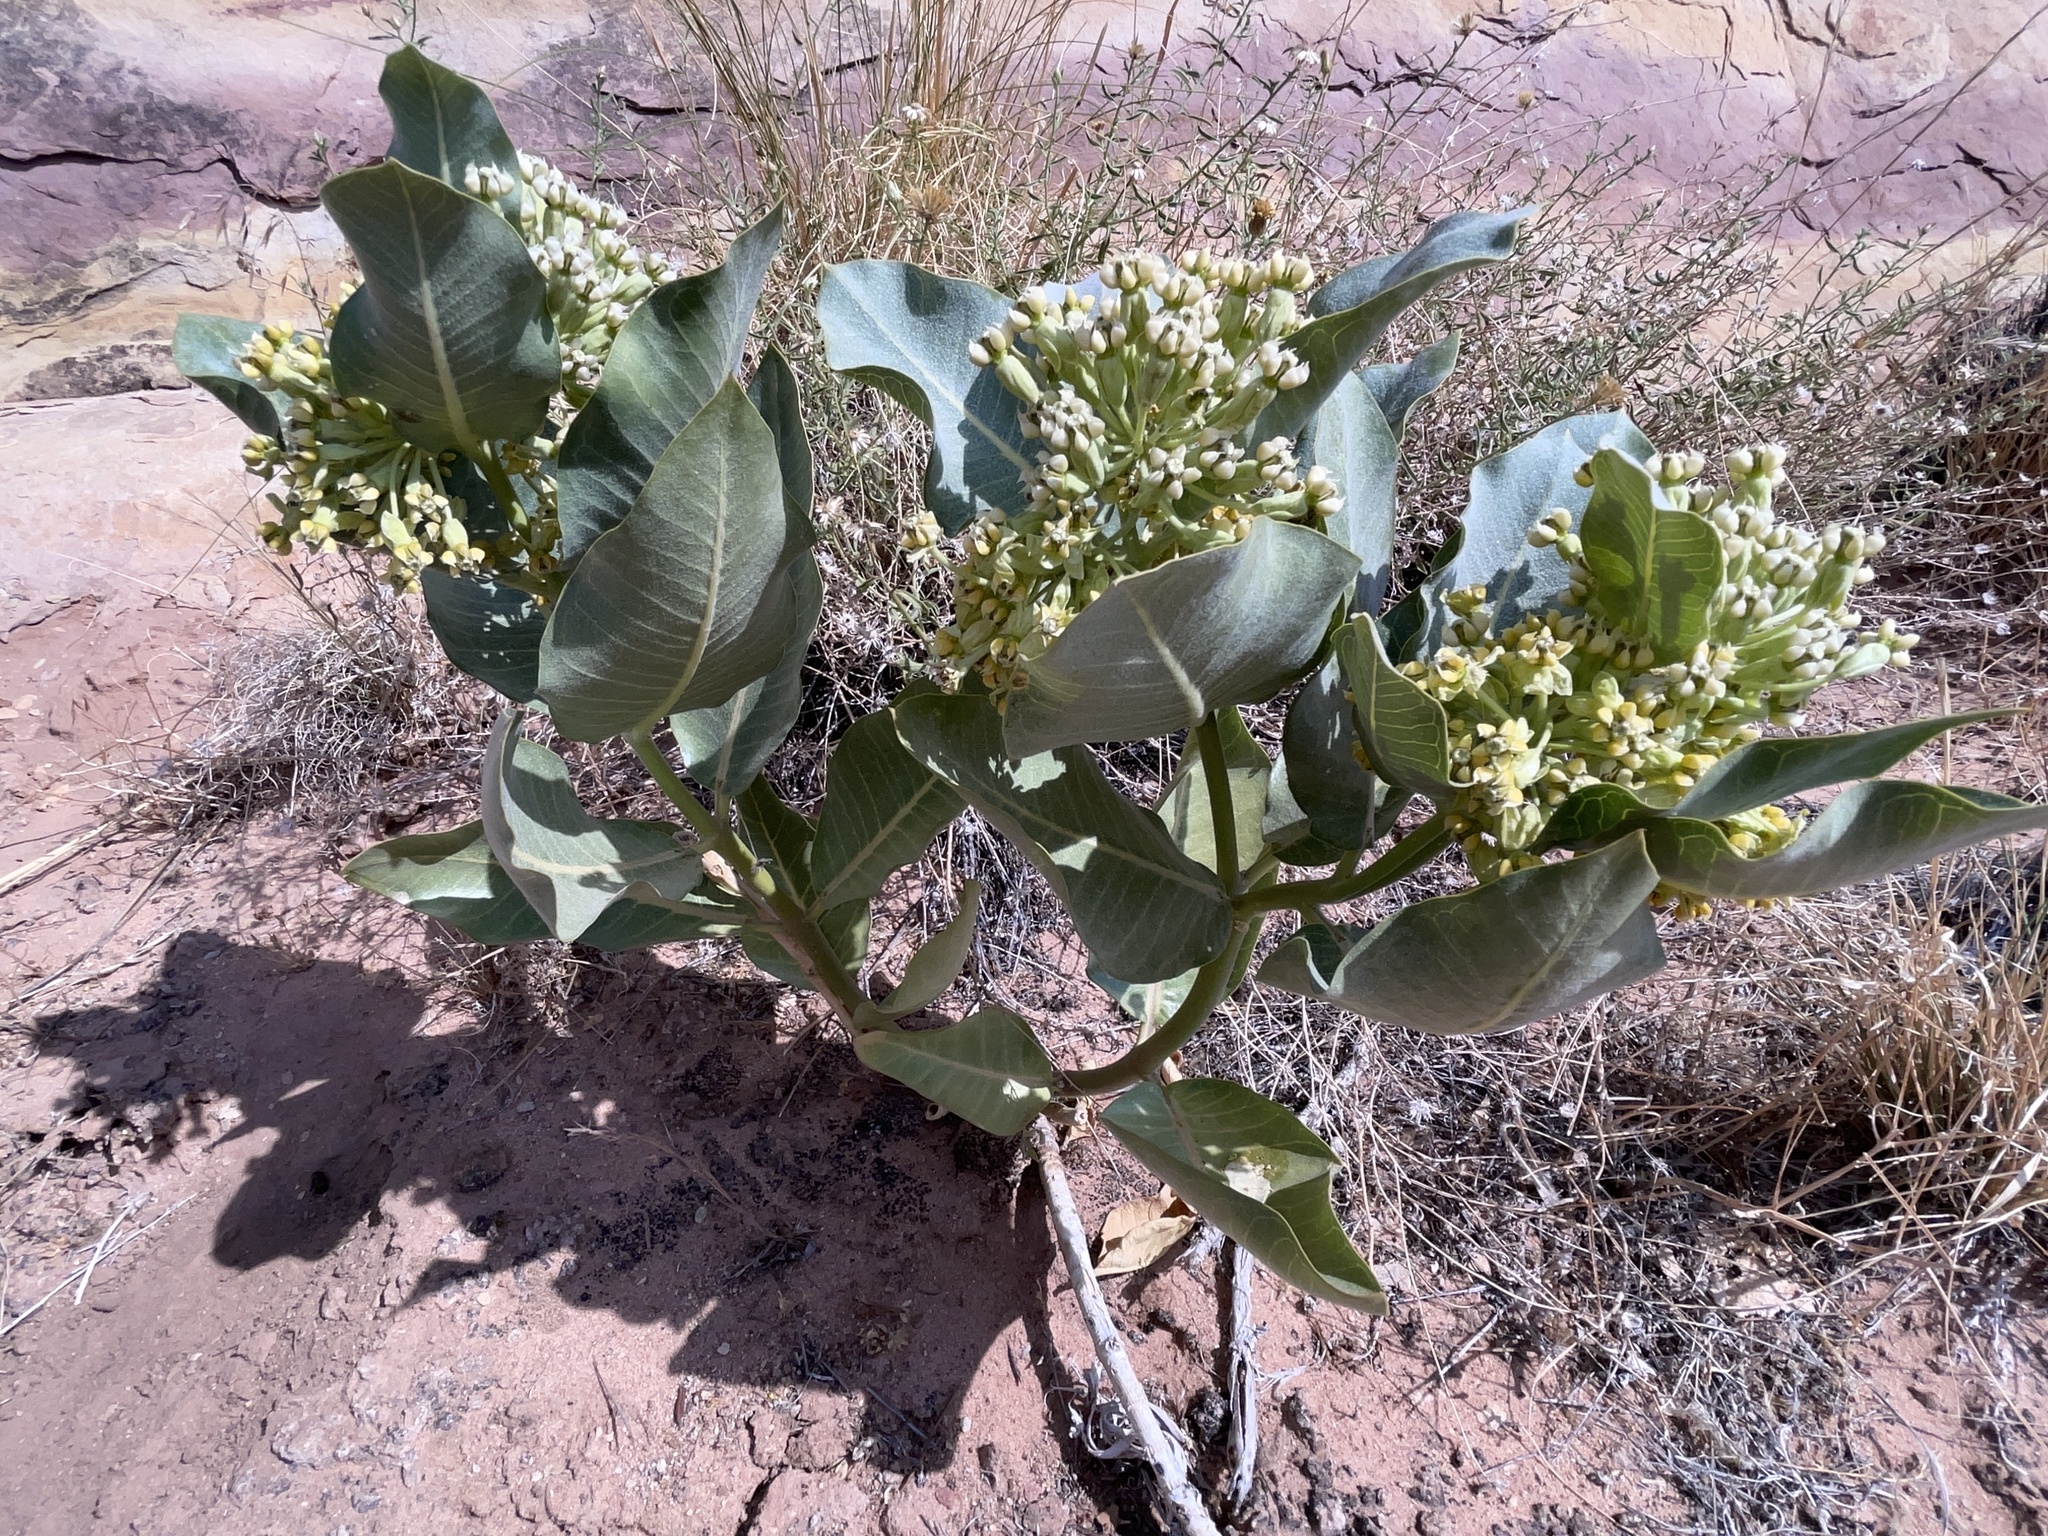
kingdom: Plantae
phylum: Tracheophyta
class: Magnoliopsida
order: Gentianales
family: Apocynaceae
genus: Asclepias
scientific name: Asclepias latifolia
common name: Broadleaf milkweed
